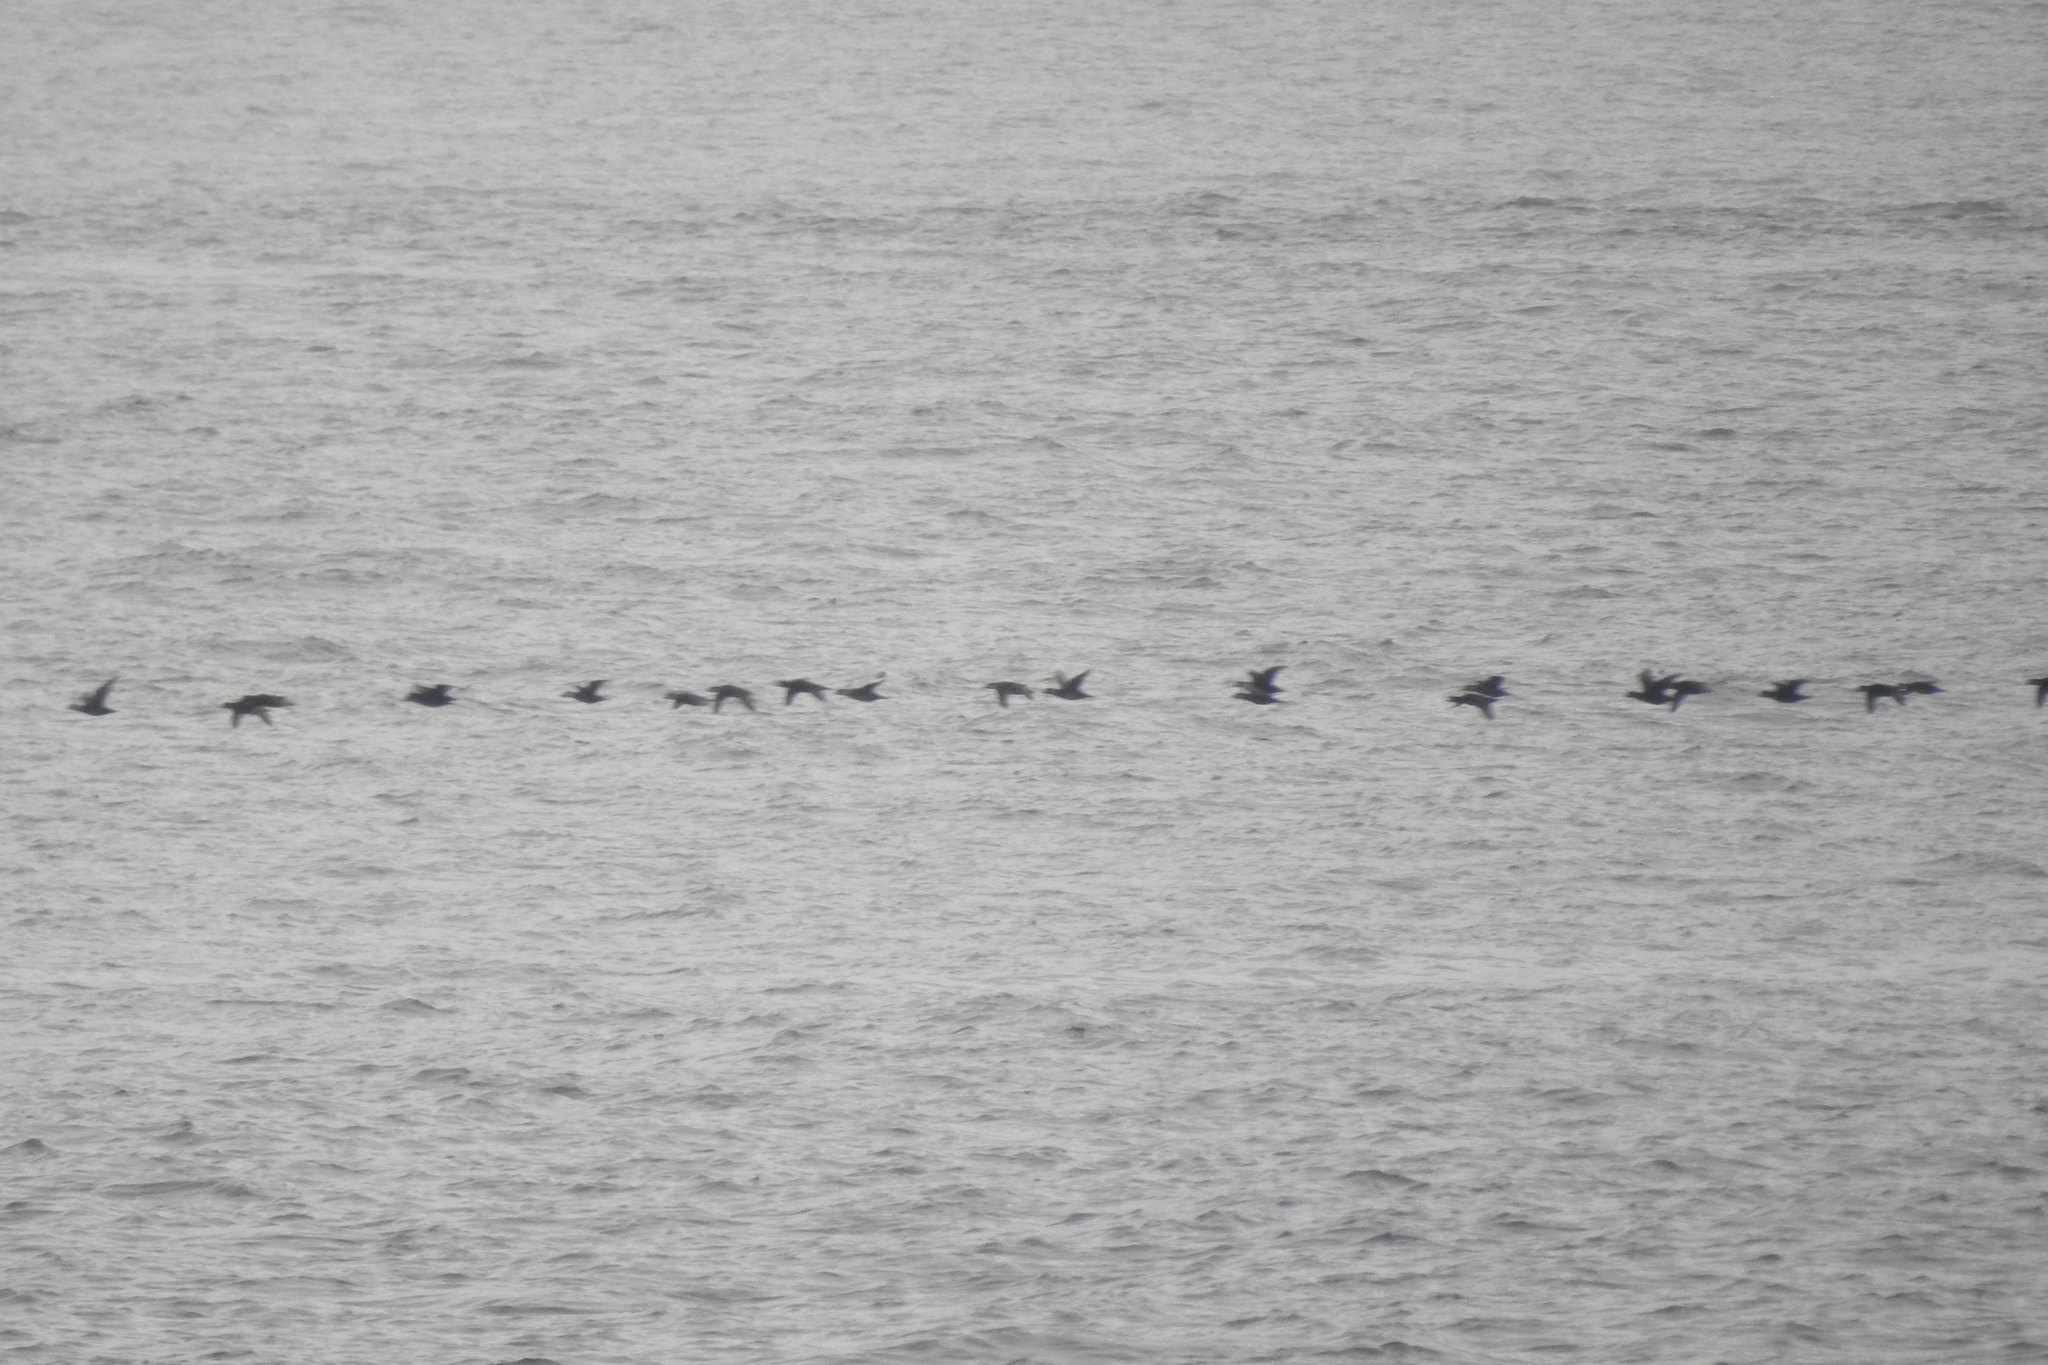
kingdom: Animalia
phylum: Chordata
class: Aves
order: Anseriformes
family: Anatidae
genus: Melanitta
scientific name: Melanitta americana
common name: Black scoter
